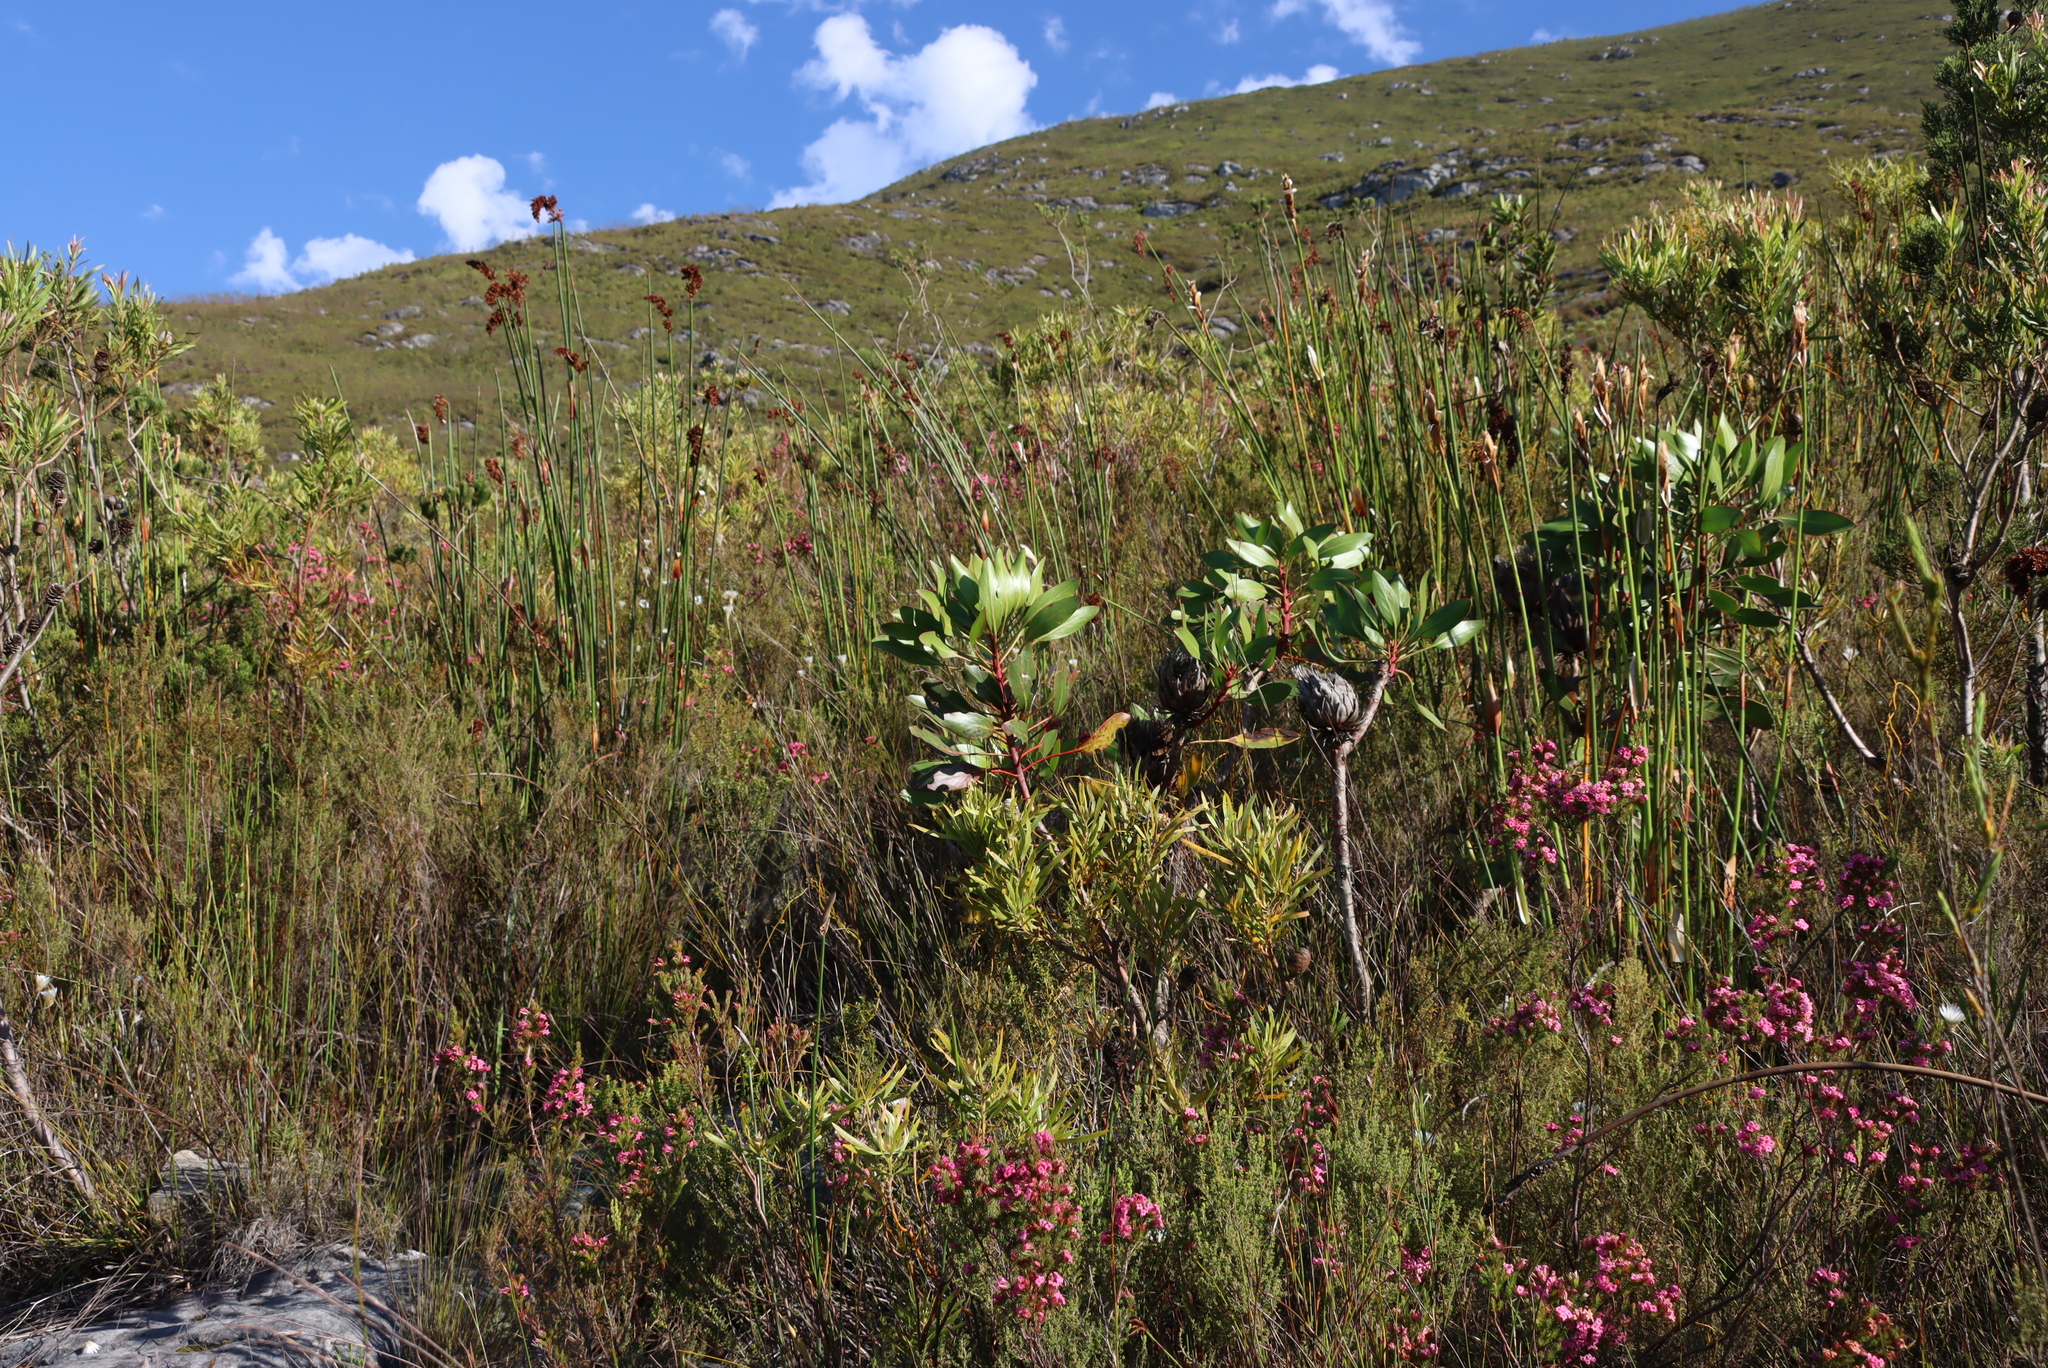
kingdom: Plantae
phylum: Tracheophyta
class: Magnoliopsida
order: Proteales
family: Proteaceae
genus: Protea
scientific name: Protea cynaroides
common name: King protea
